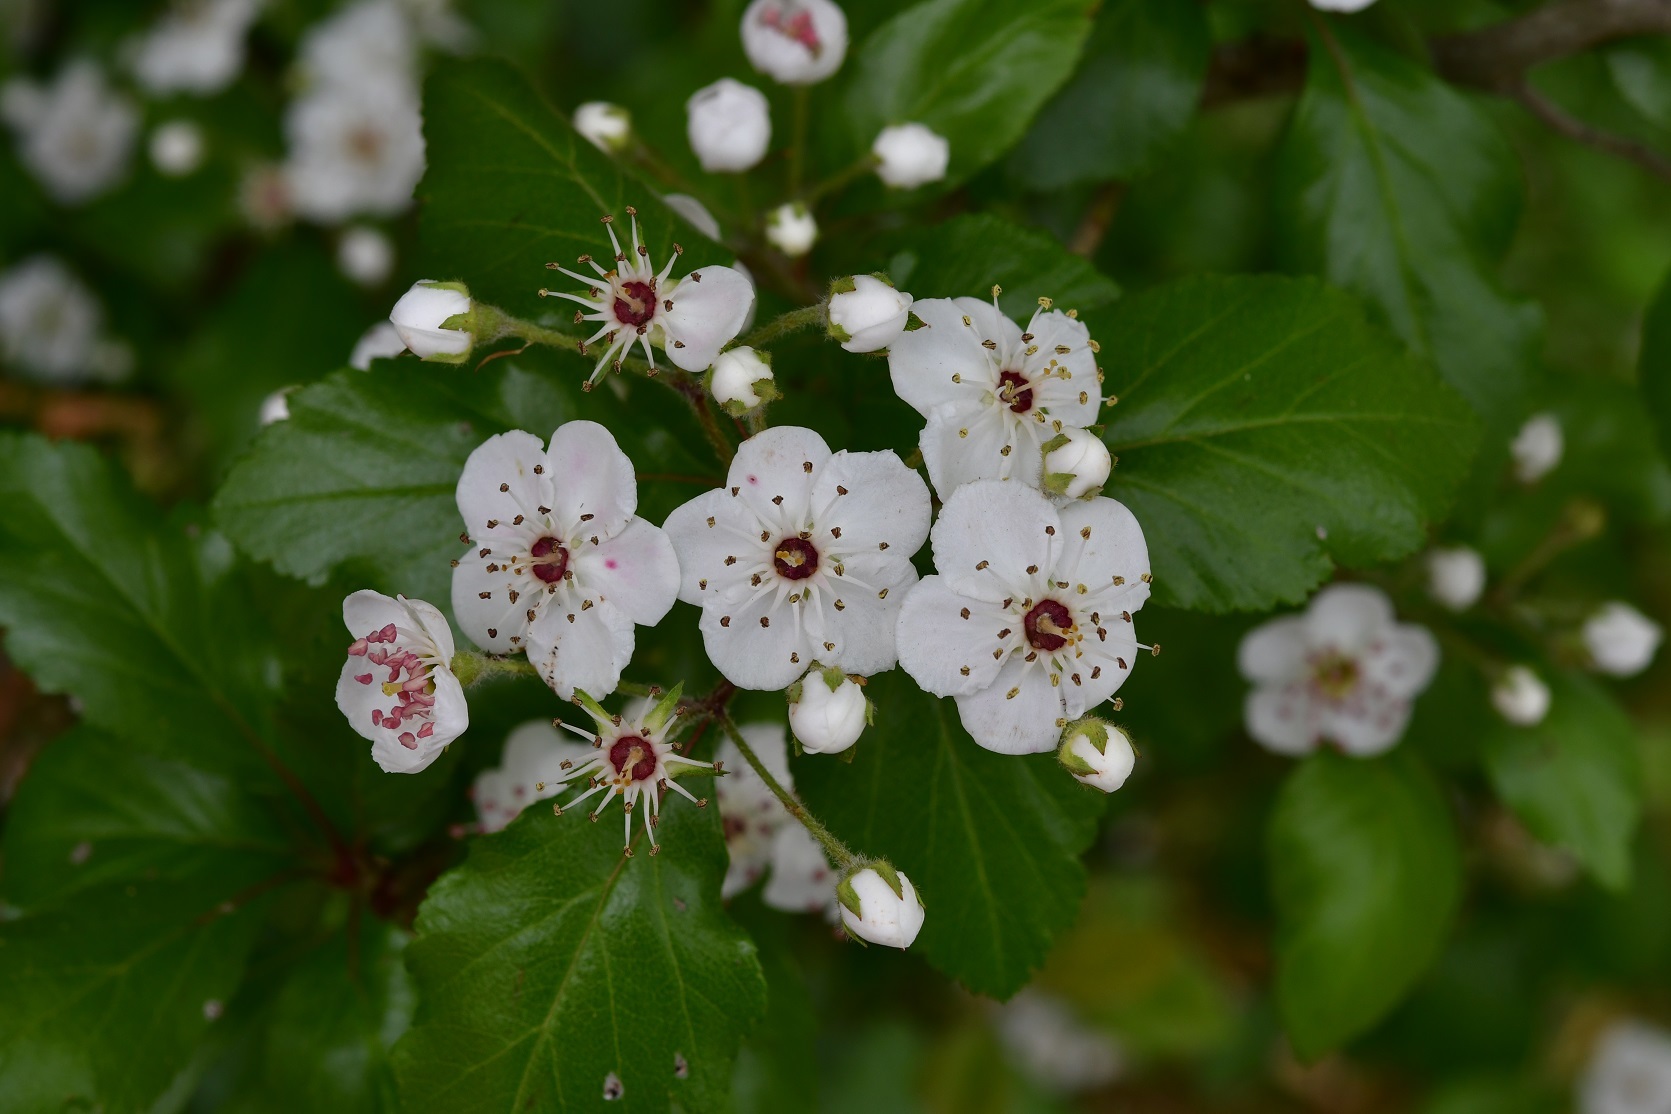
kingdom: Plantae
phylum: Tracheophyta
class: Magnoliopsida
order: Rosales
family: Rosaceae
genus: Crataegus
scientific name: Crataegus mexicana
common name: Mexican hawthorn
